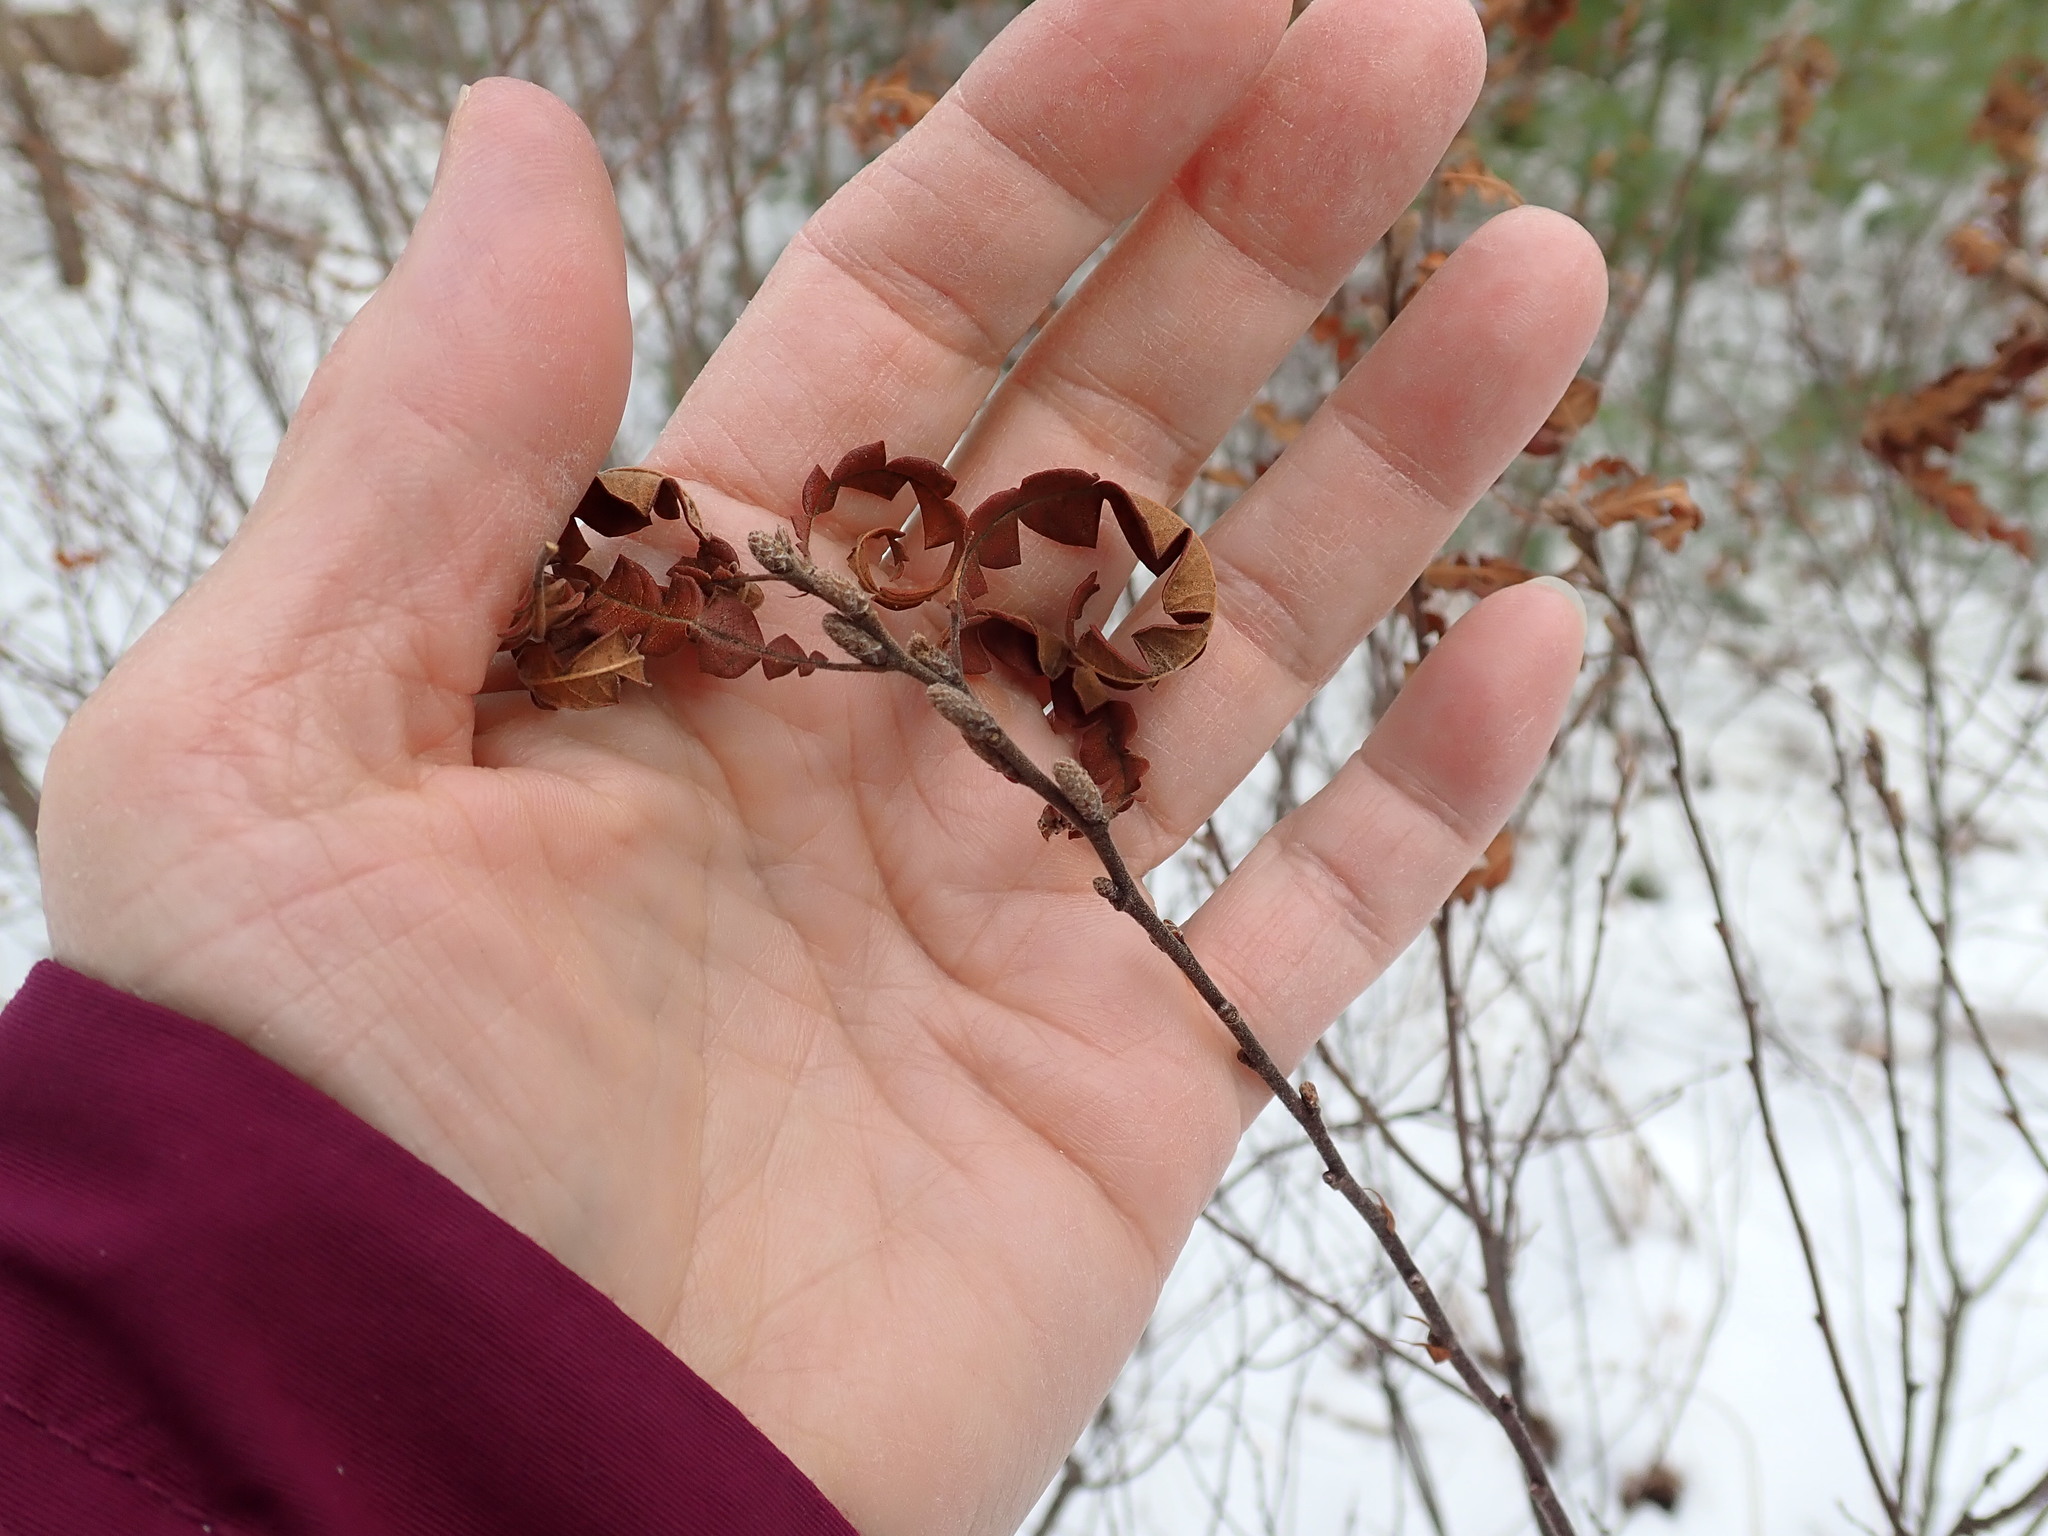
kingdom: Plantae
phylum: Tracheophyta
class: Magnoliopsida
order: Fagales
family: Myricaceae
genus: Comptonia
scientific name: Comptonia peregrina
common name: Sweet-fern
